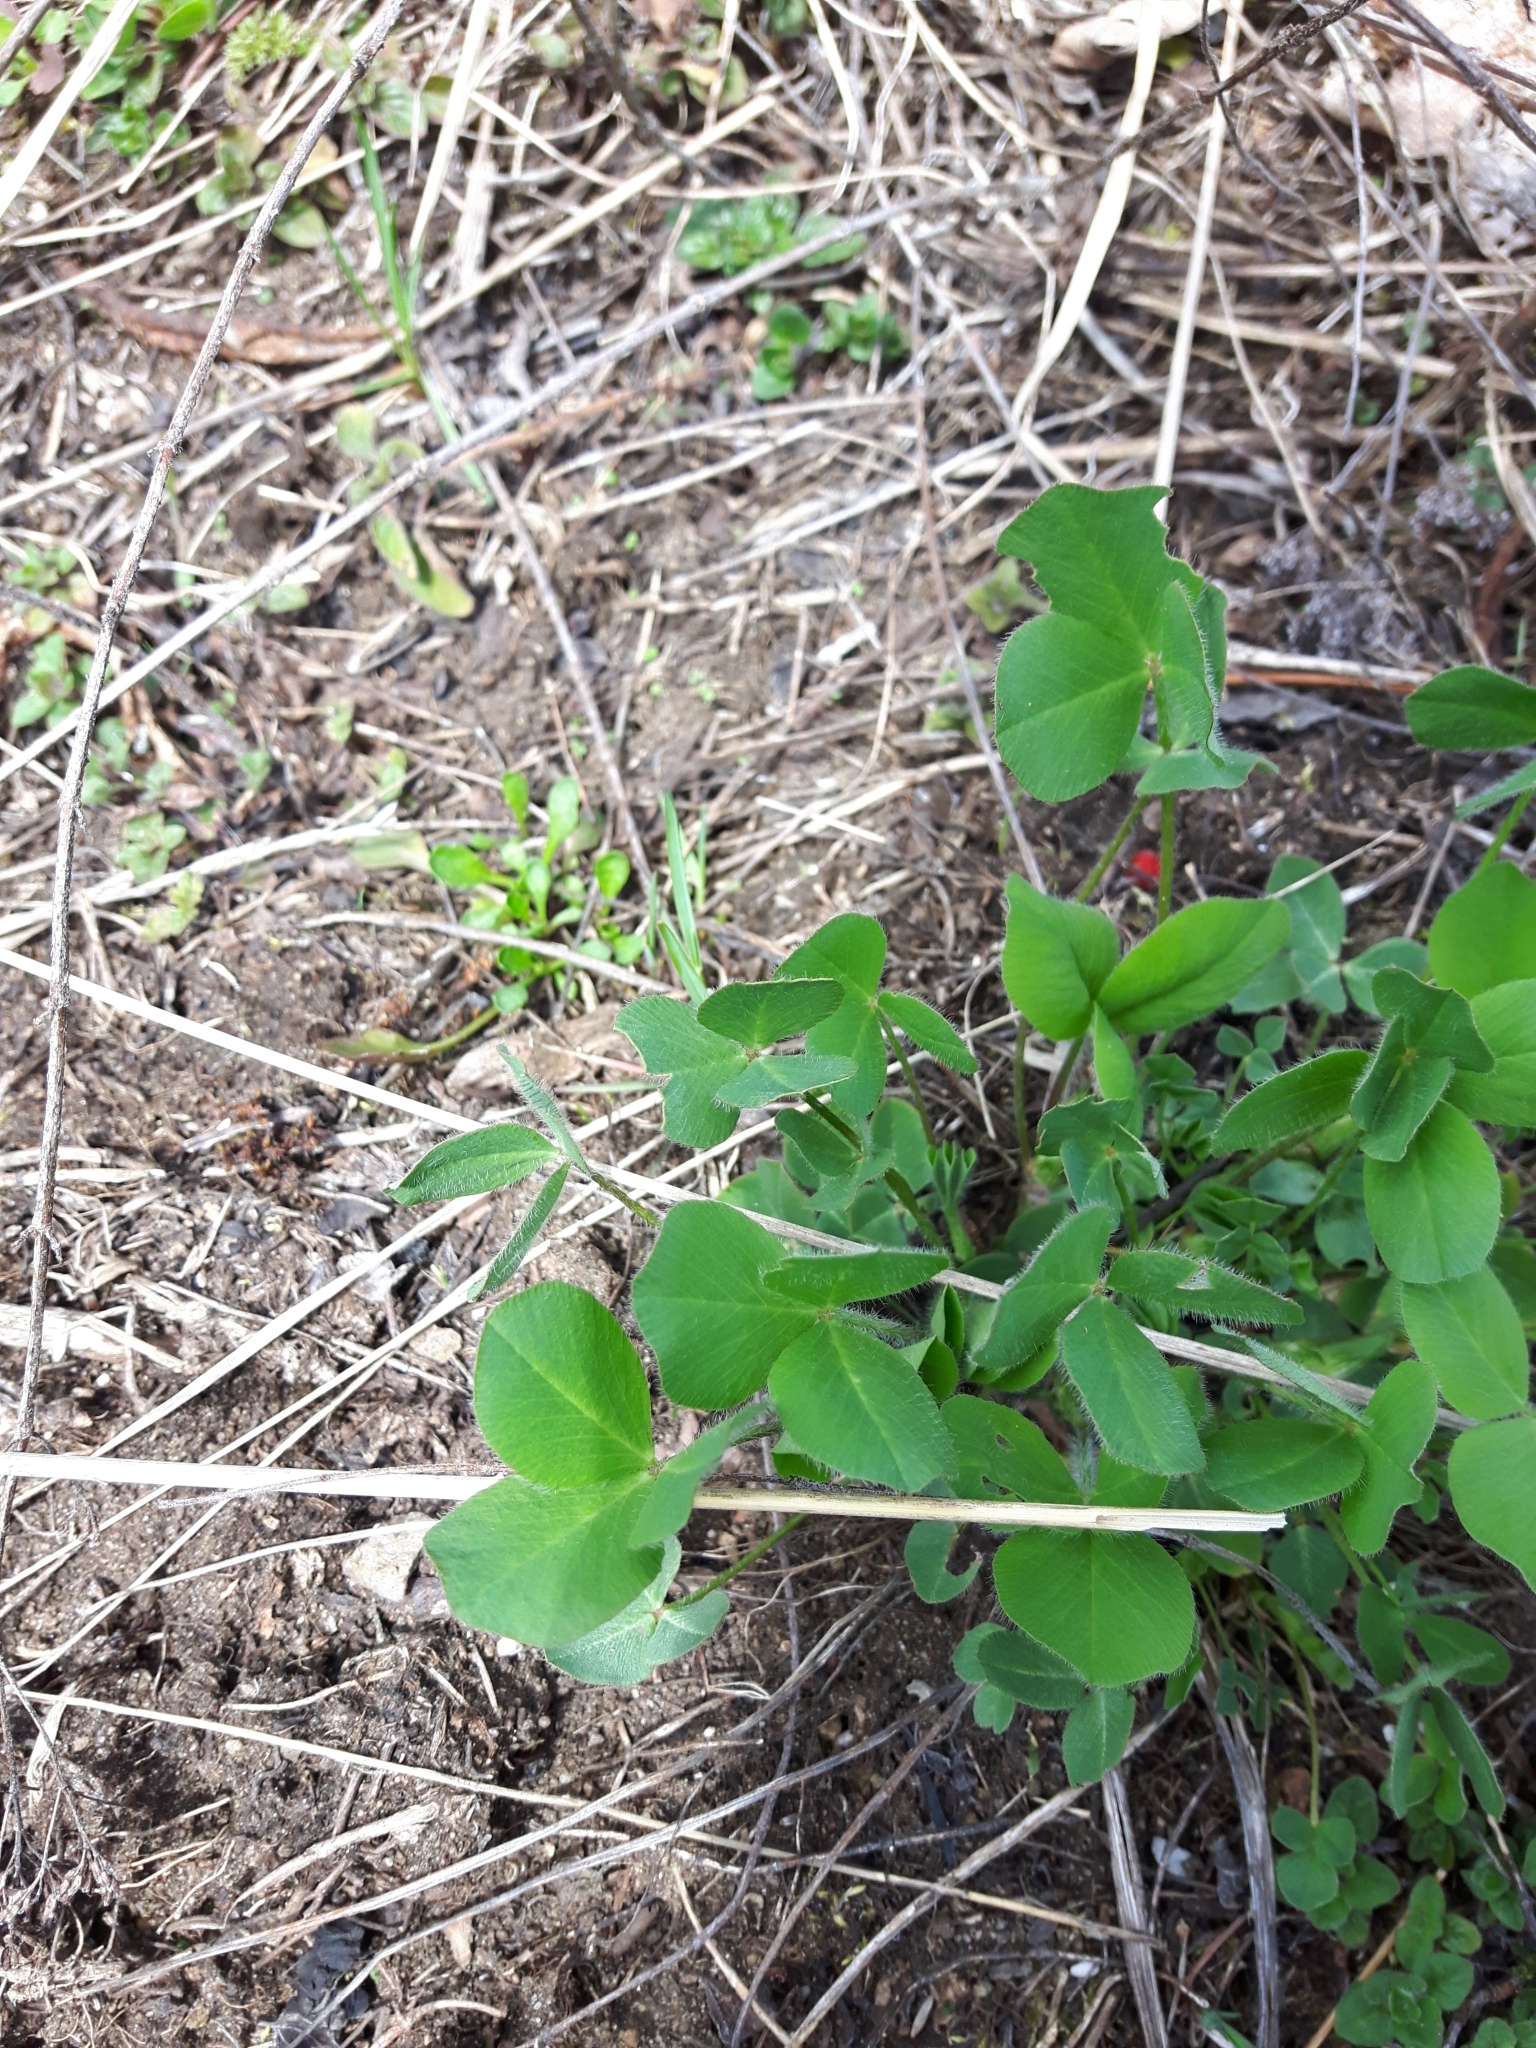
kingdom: Plantae
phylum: Tracheophyta
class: Magnoliopsida
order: Fabales
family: Fabaceae
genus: Trifolium
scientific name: Trifolium pratense
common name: Red clover
